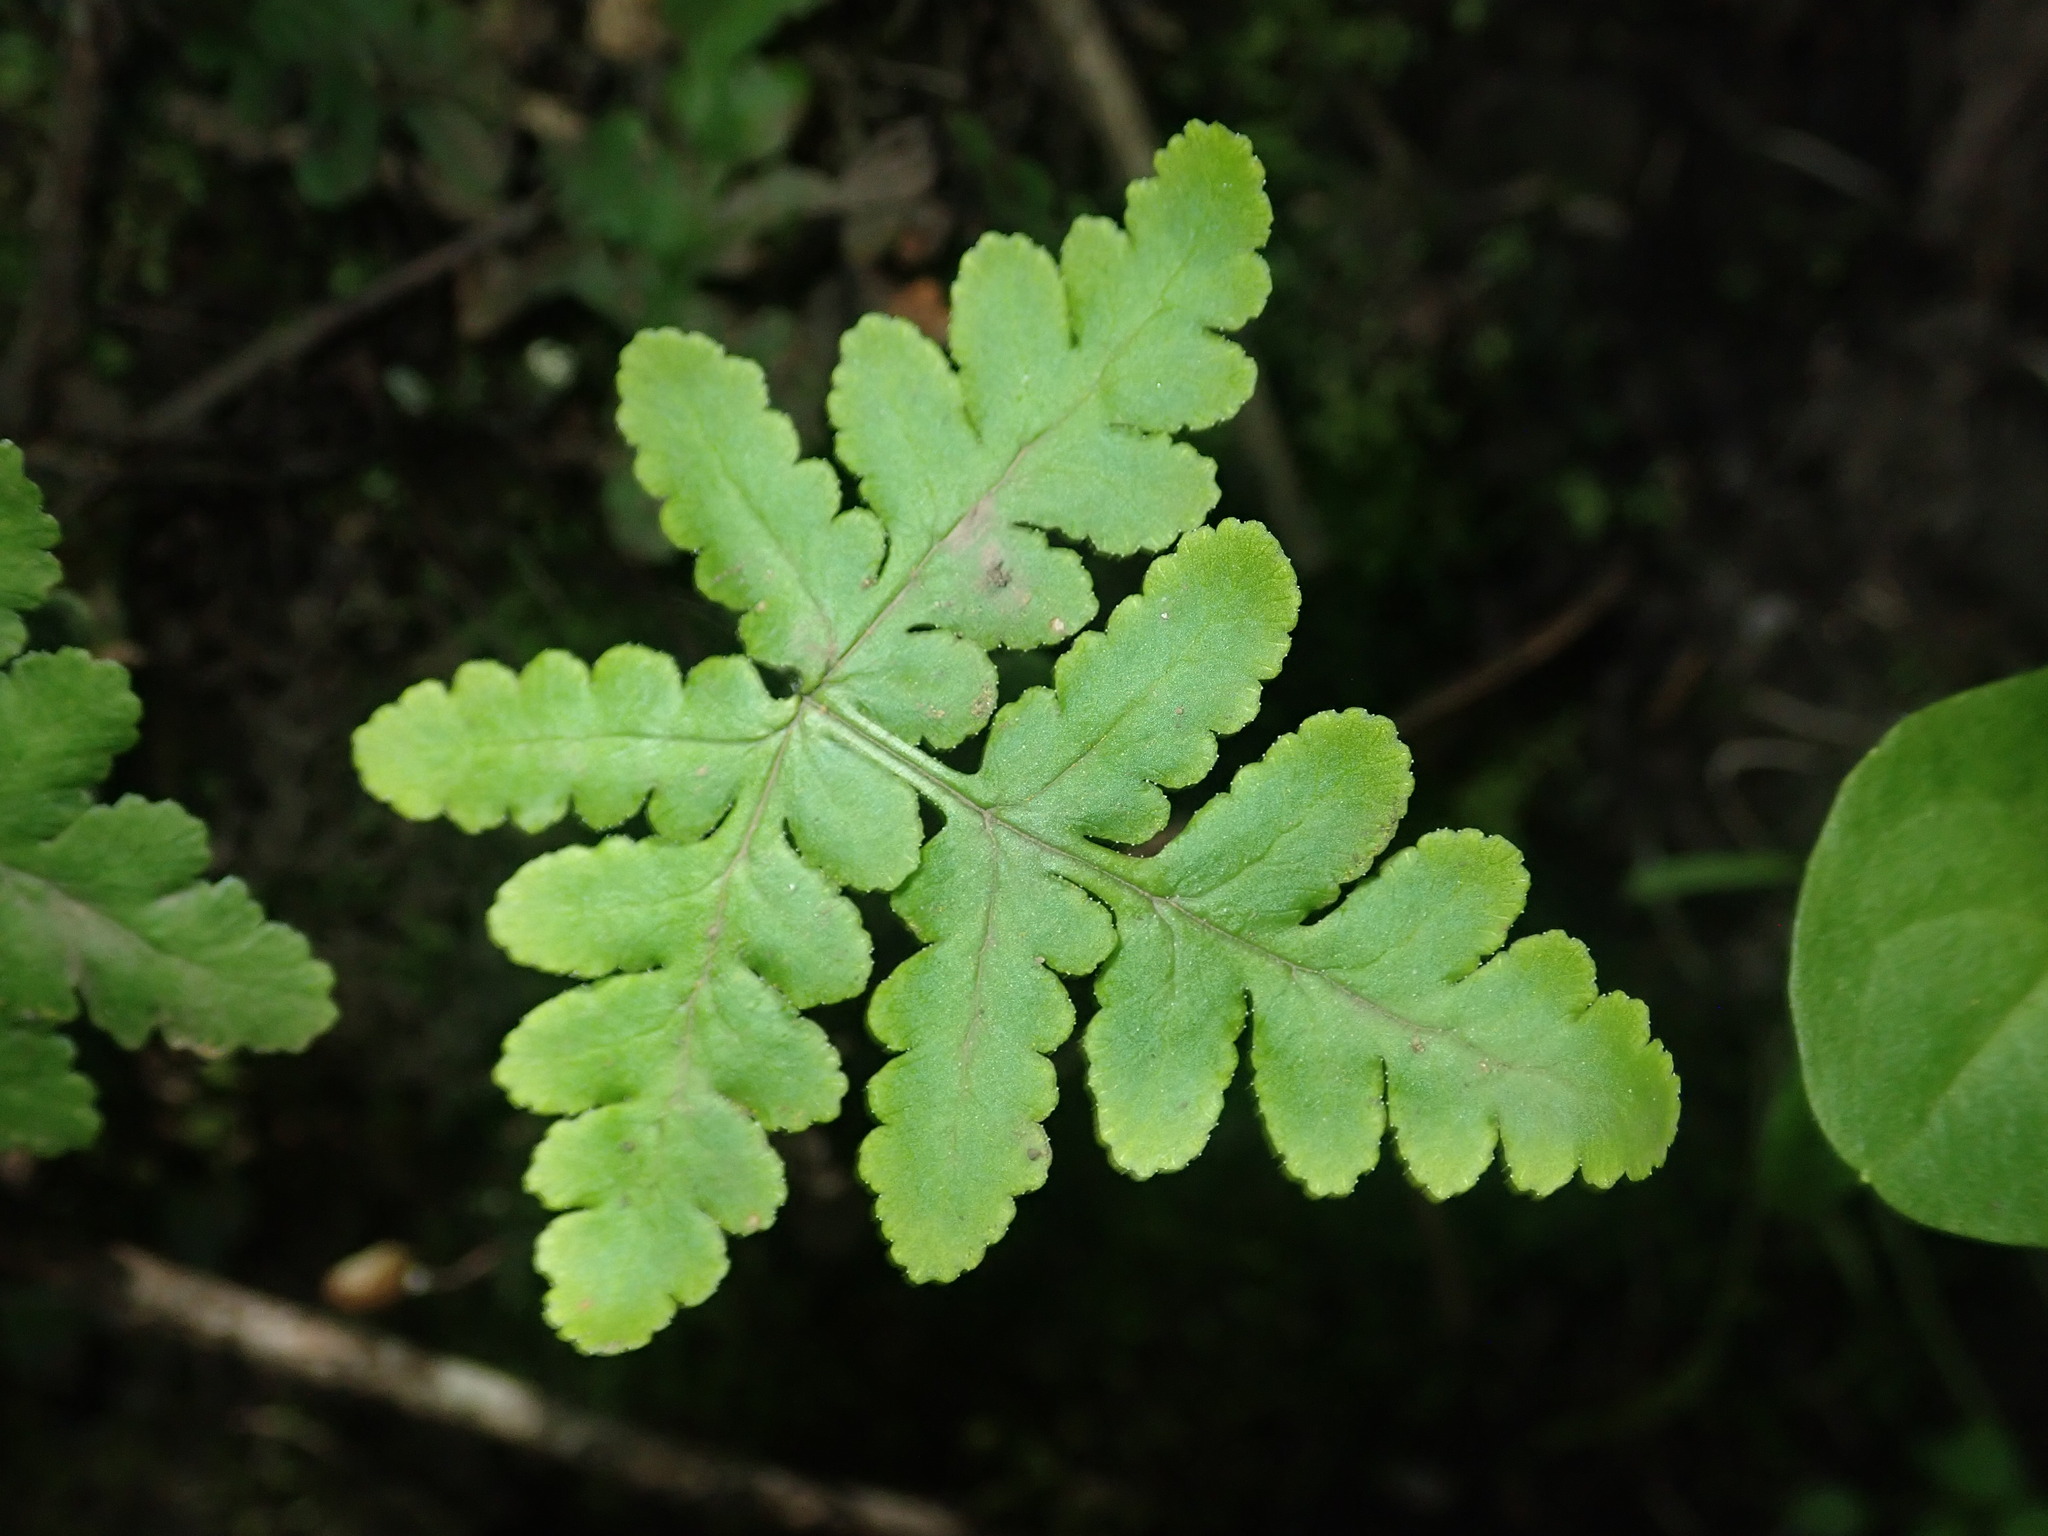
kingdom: Plantae
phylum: Tracheophyta
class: Polypodiopsida
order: Polypodiales
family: Pteridaceae
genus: Pentagramma
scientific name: Pentagramma triangularis
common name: Gold fern
